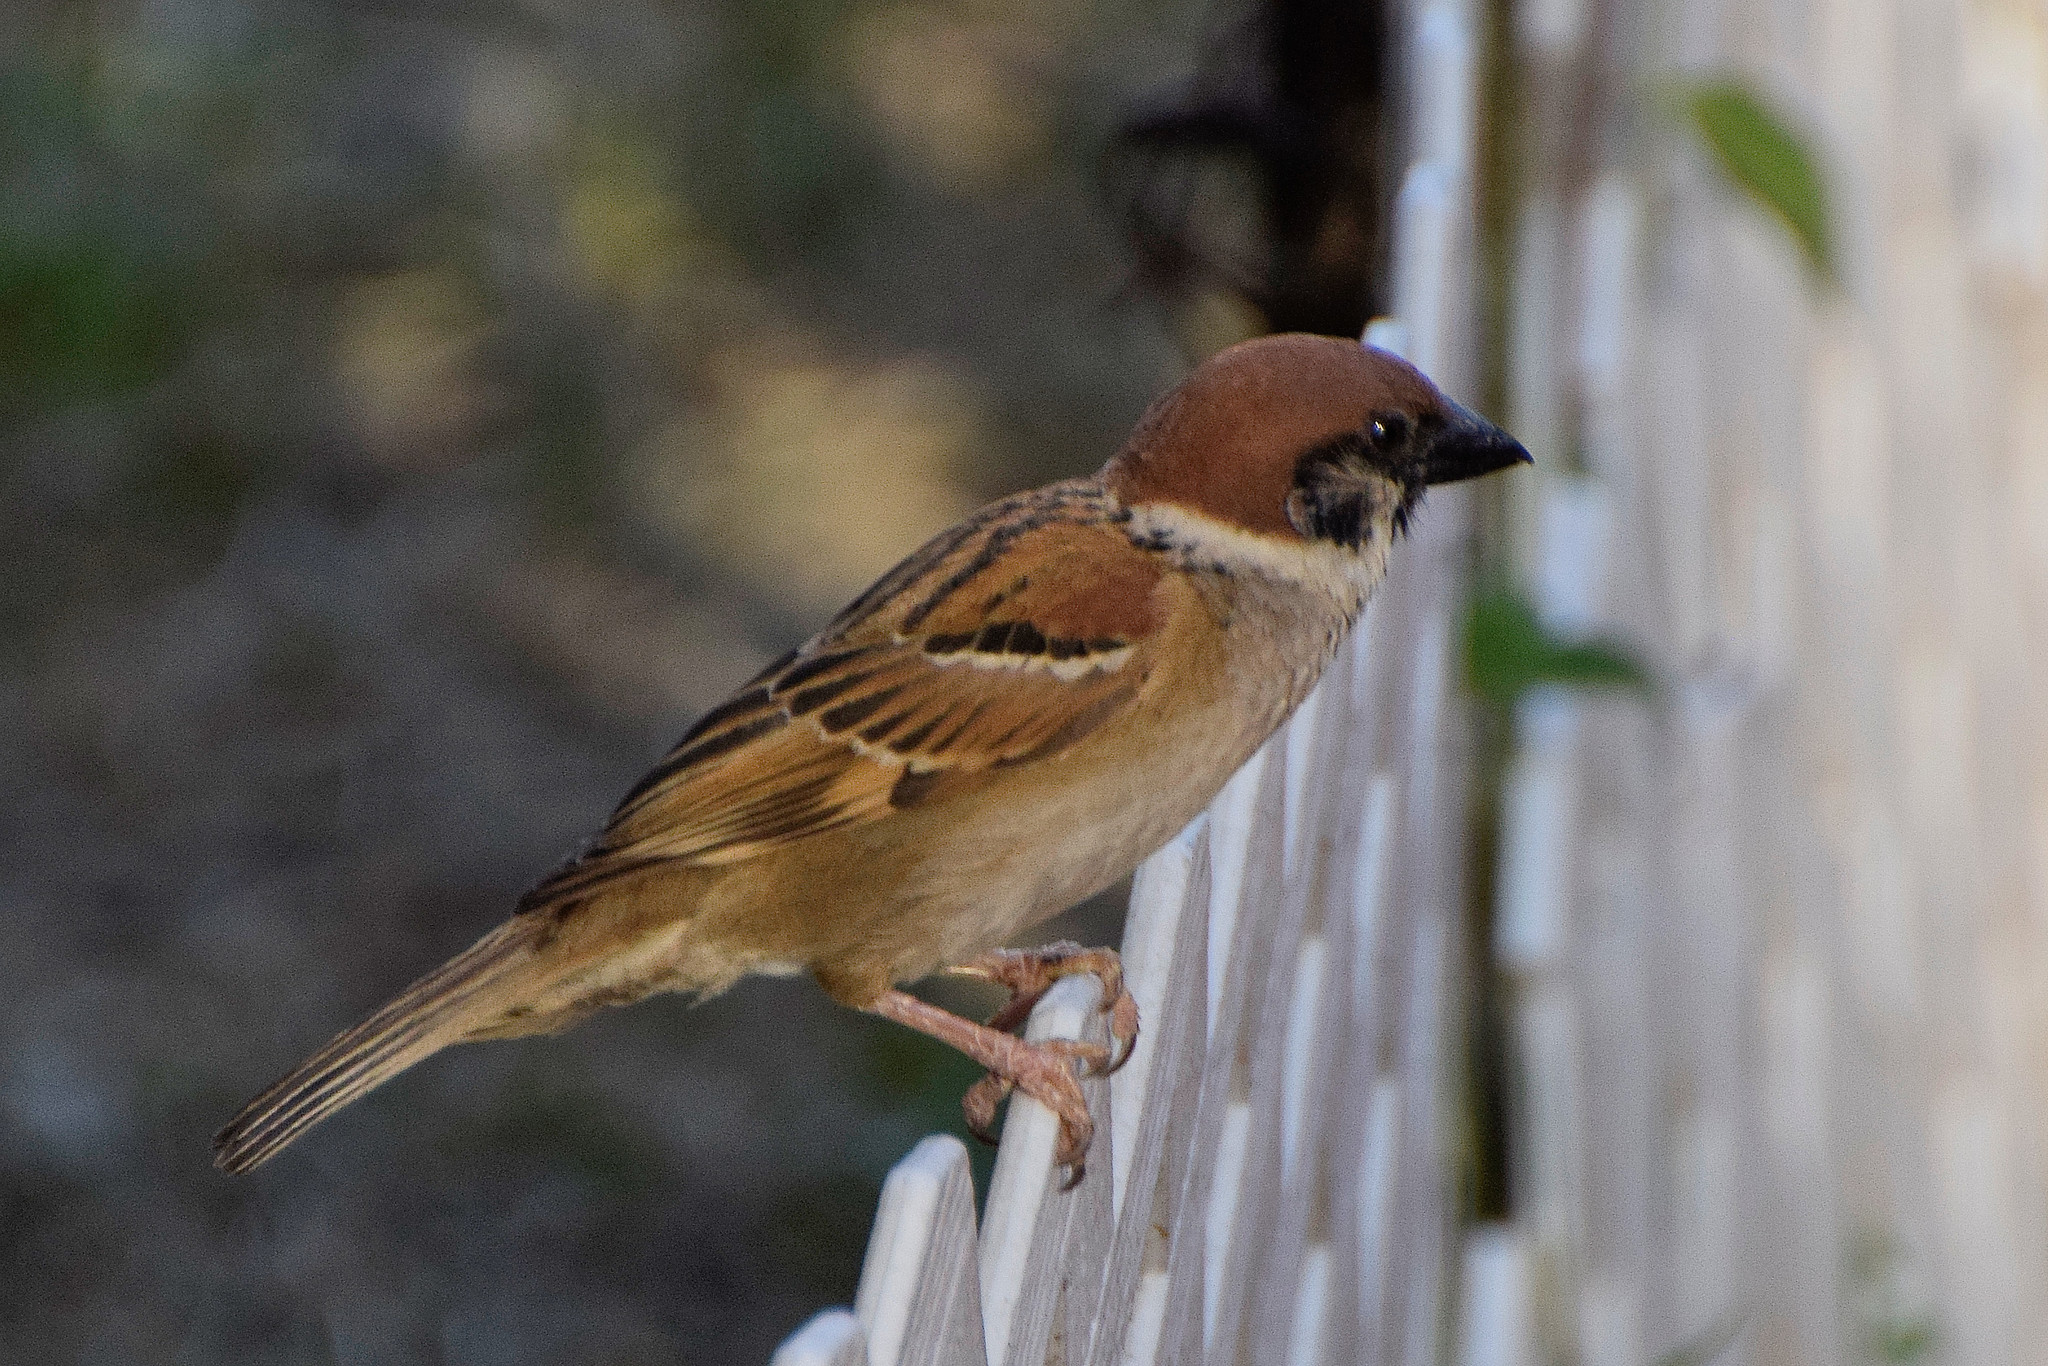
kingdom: Animalia
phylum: Chordata
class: Aves
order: Passeriformes
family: Passeridae
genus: Passer
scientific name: Passer montanus
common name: Eurasian tree sparrow
